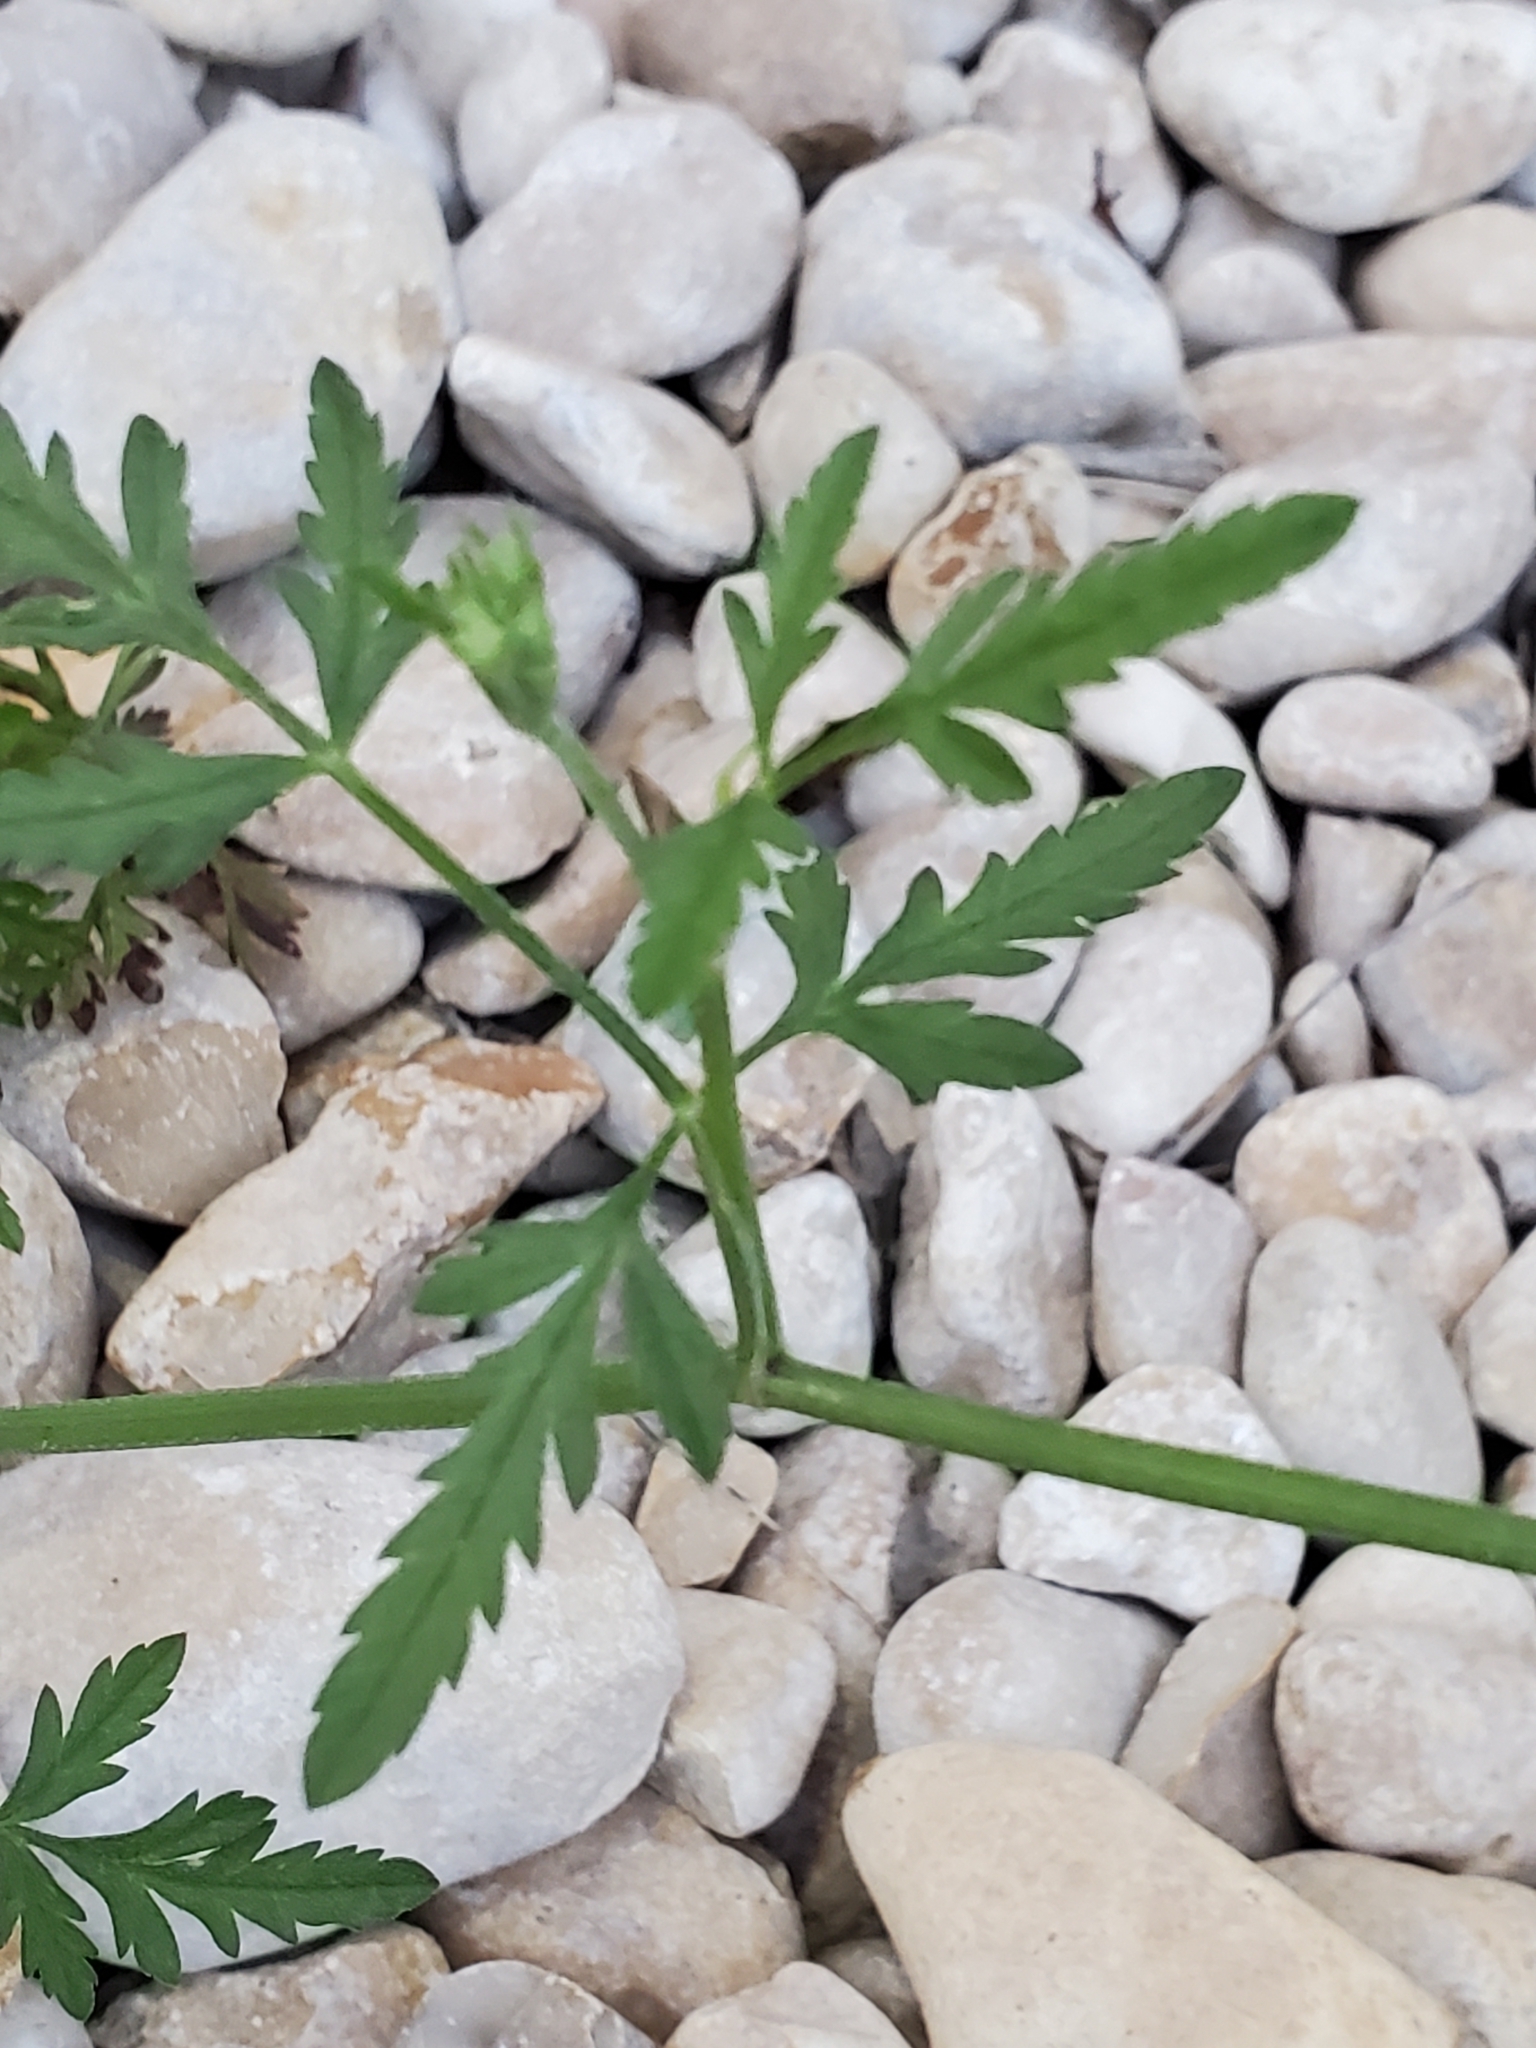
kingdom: Plantae
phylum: Tracheophyta
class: Magnoliopsida
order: Apiales
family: Apiaceae
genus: Torilis
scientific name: Torilis arvensis
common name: Spreading hedge-parsley
